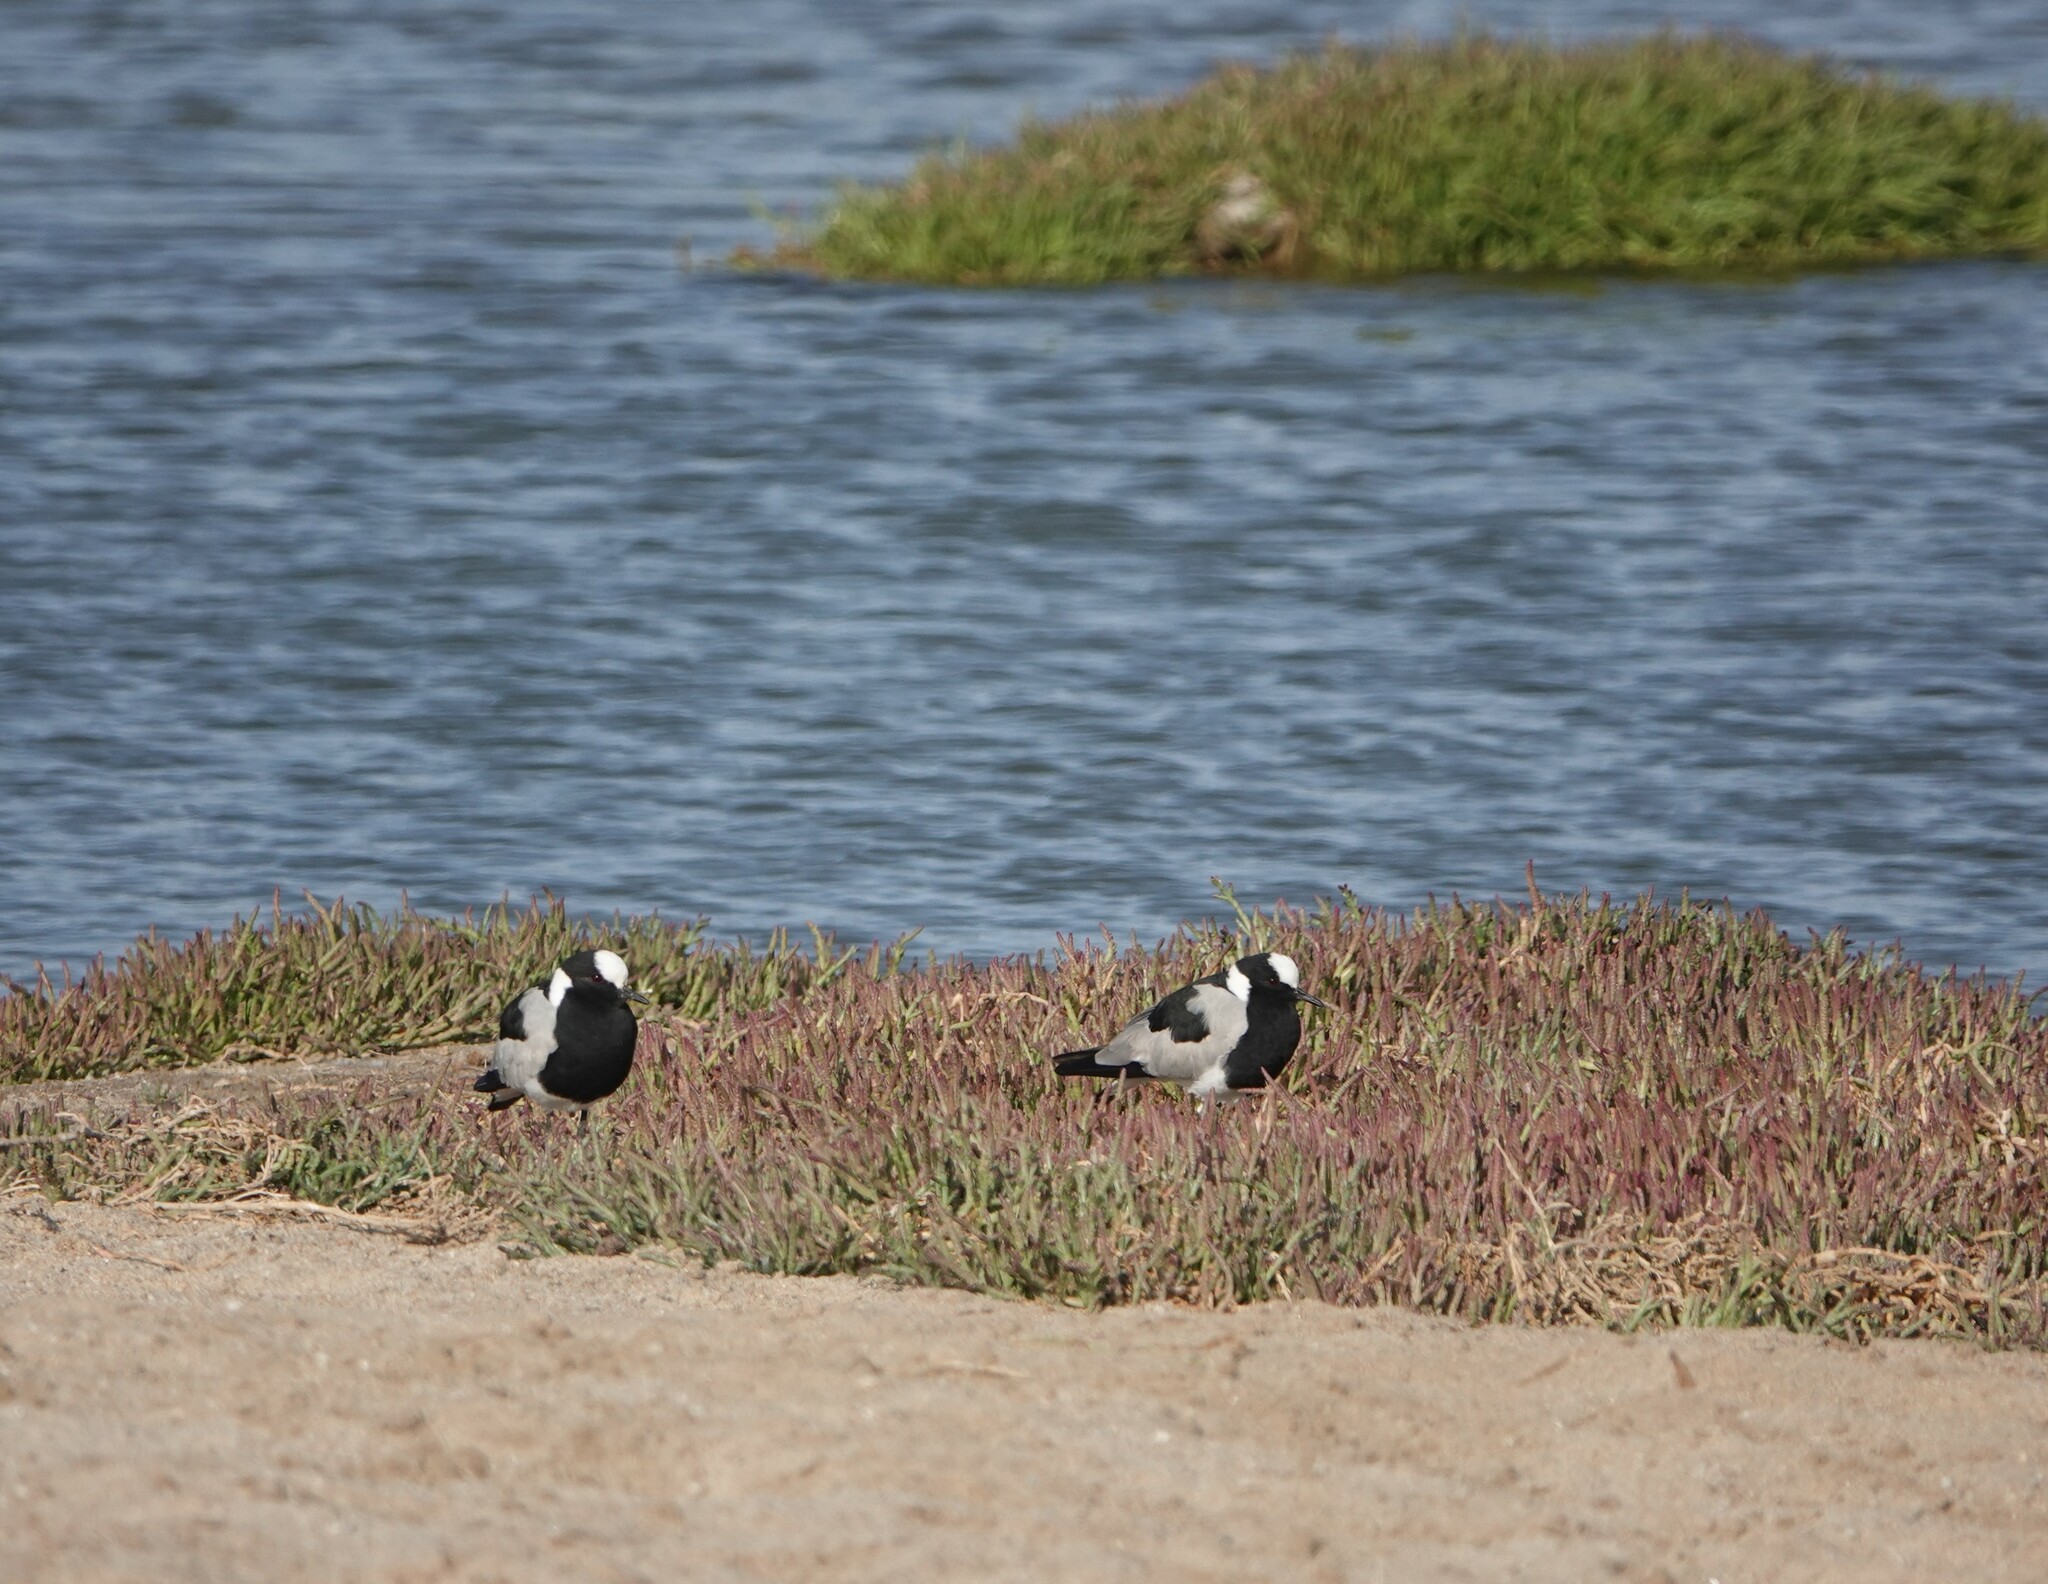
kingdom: Animalia
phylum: Chordata
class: Aves
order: Charadriiformes
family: Charadriidae
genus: Vanellus
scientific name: Vanellus armatus
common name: Blacksmith lapwing
